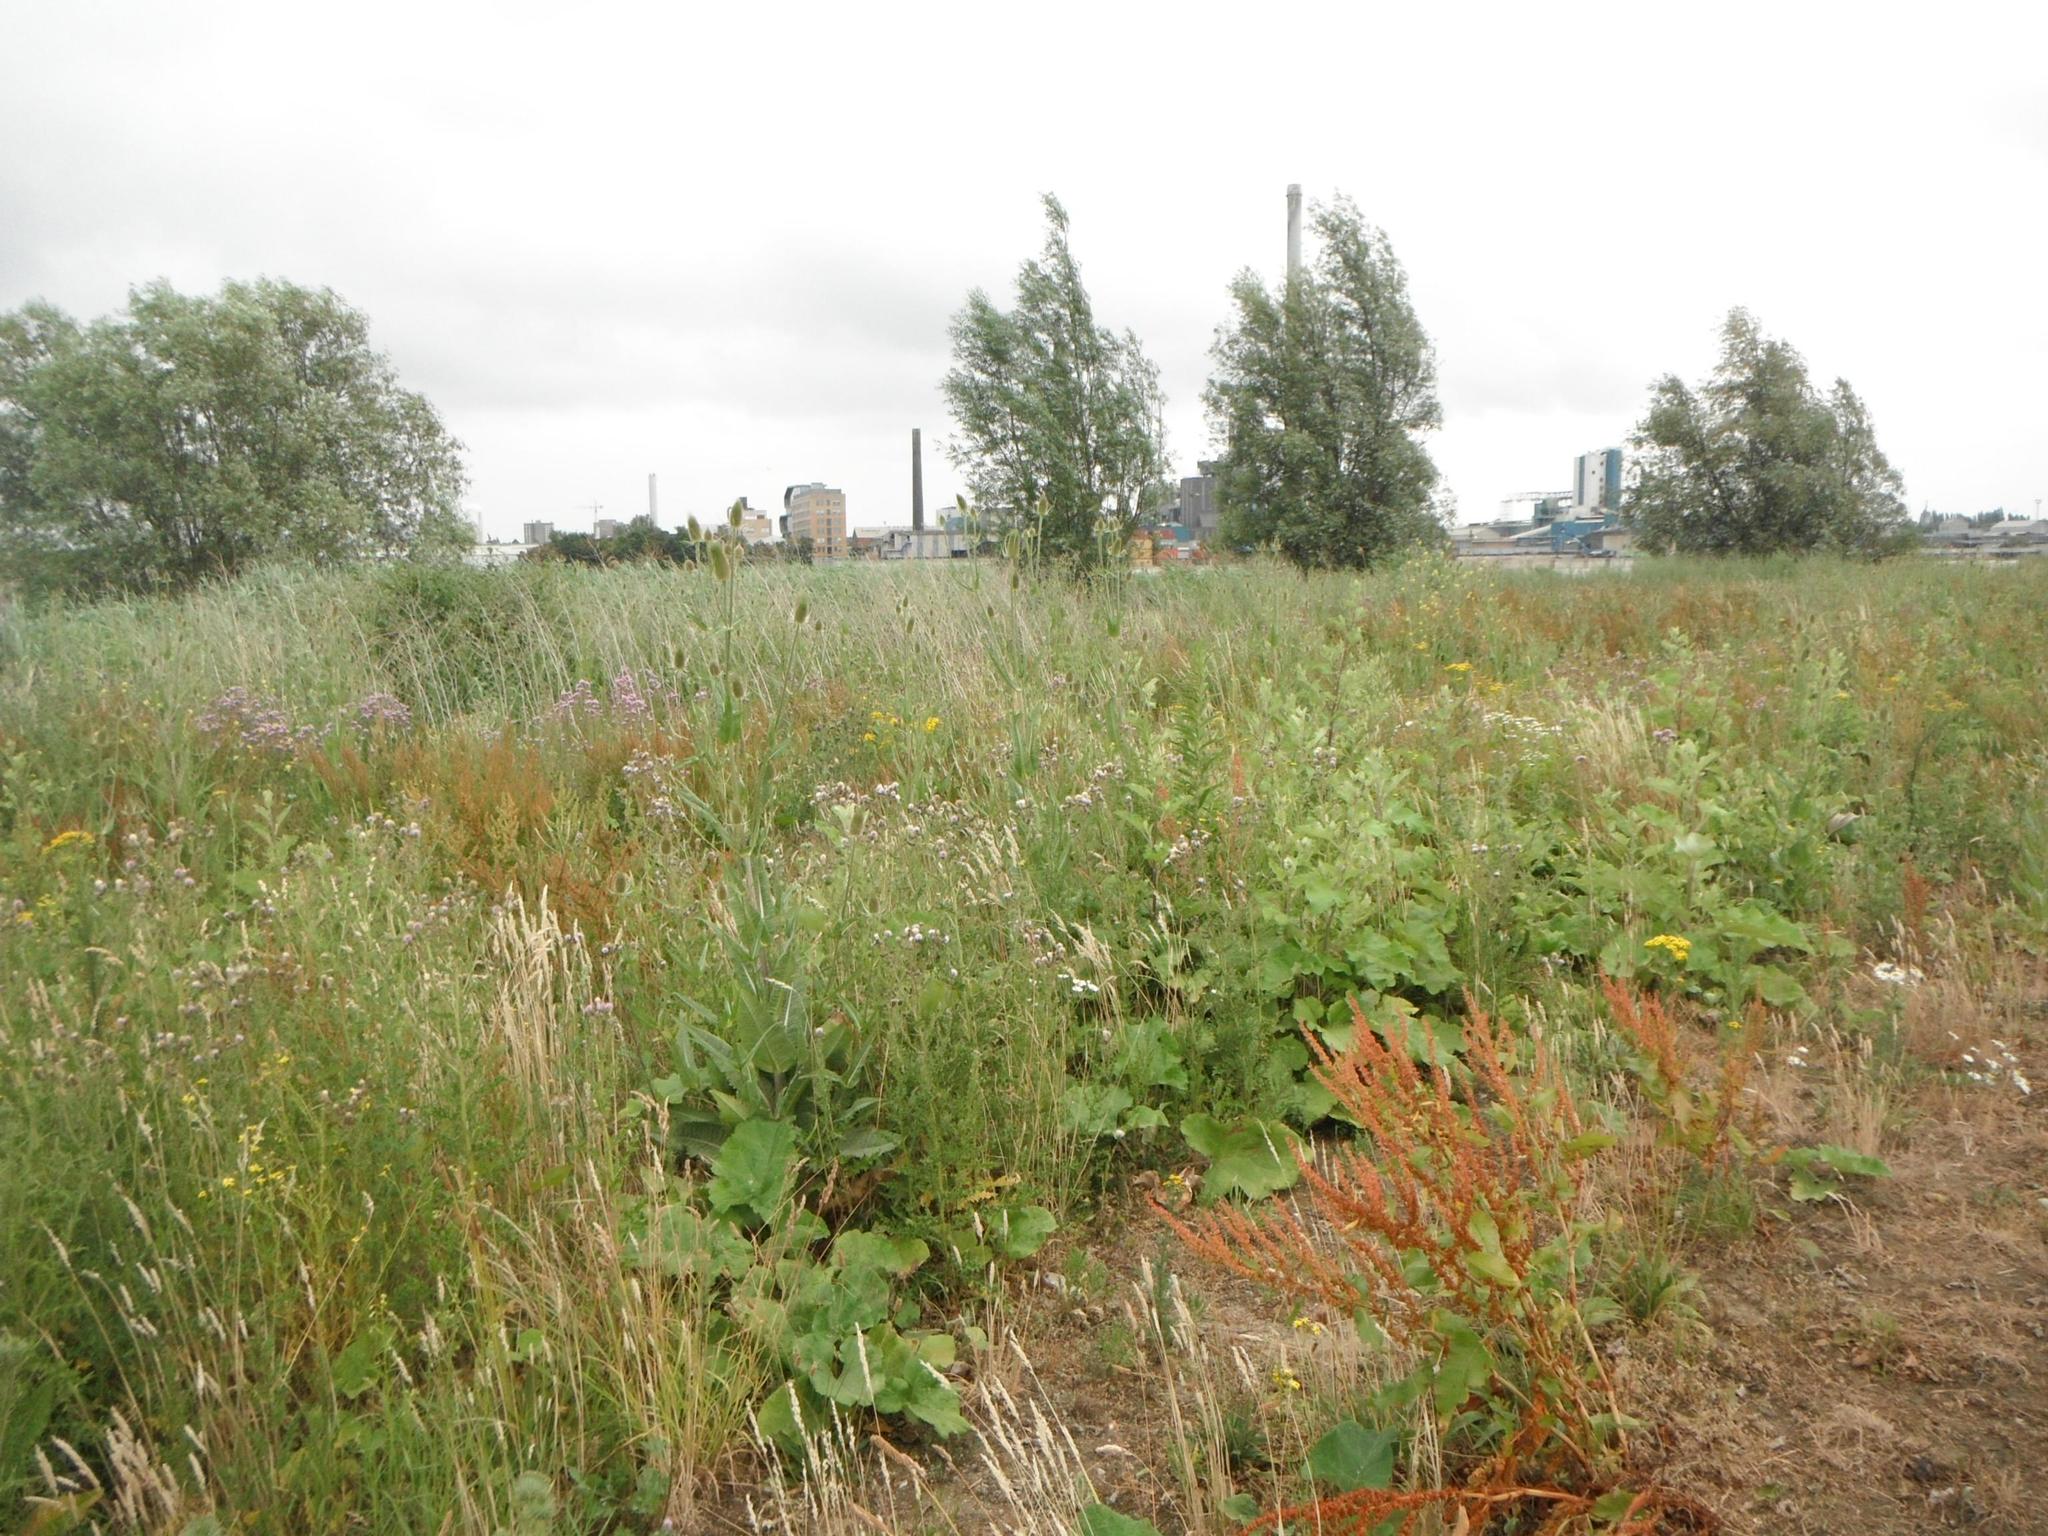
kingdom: Plantae
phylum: Tracheophyta
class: Magnoliopsida
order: Dipsacales
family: Caprifoliaceae
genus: Dipsacus
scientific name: Dipsacus fullonum
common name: Teasel
